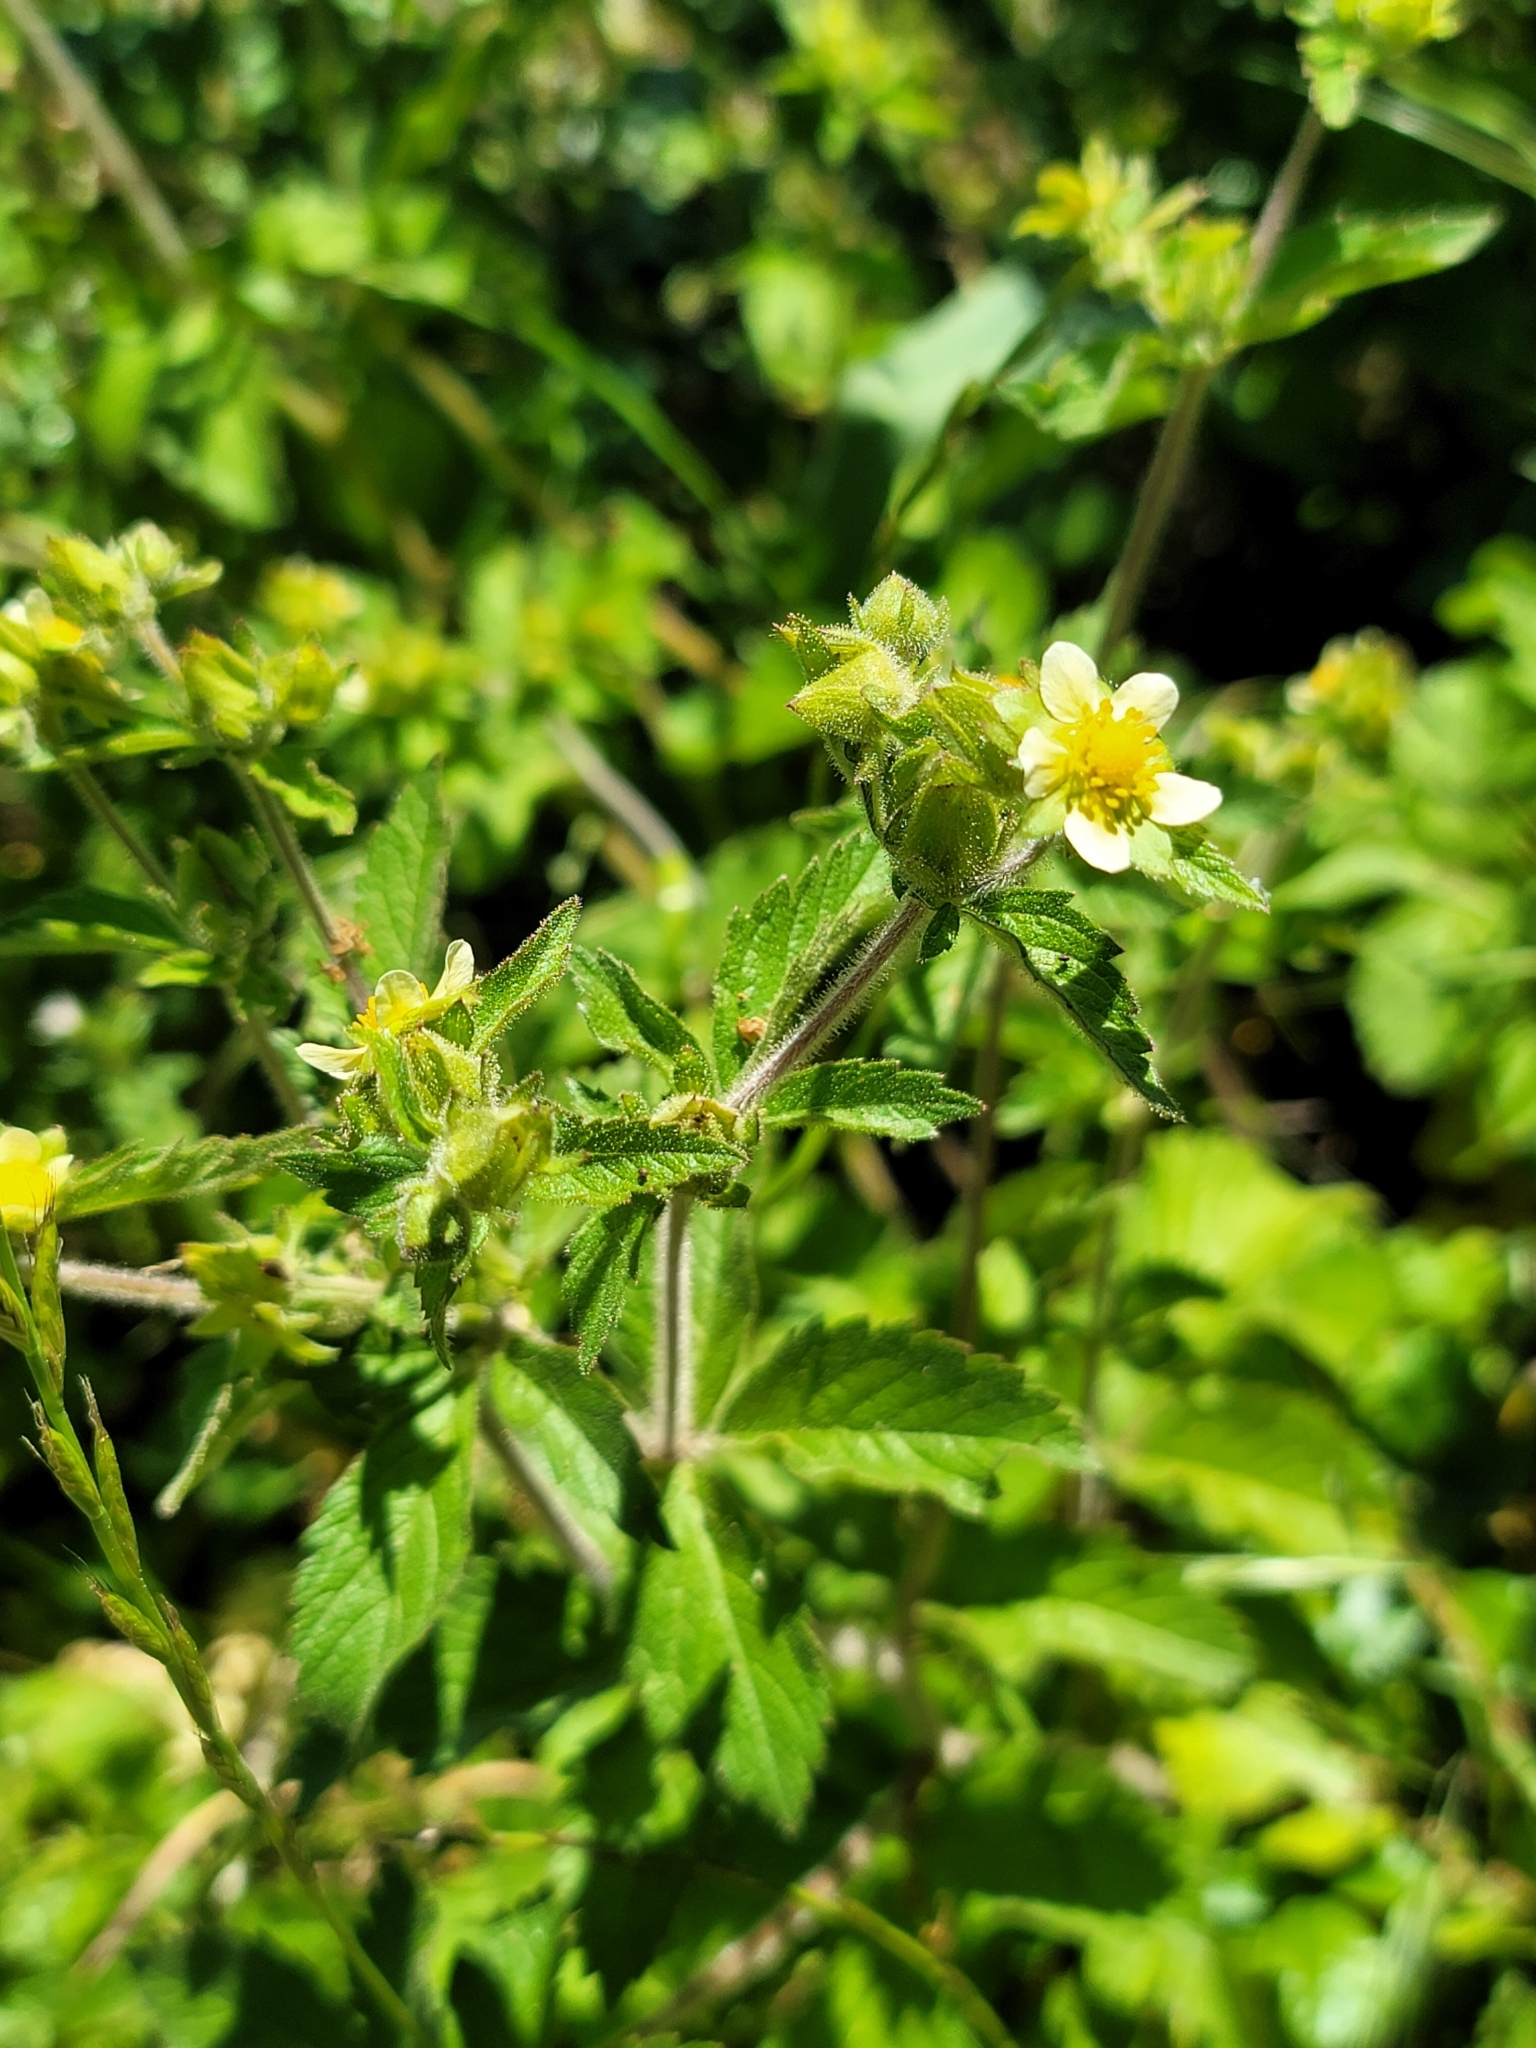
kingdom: Plantae
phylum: Tracheophyta
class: Magnoliopsida
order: Rosales
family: Rosaceae
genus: Drymocallis
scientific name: Drymocallis glandulosa
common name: Sticky cinquefoil
